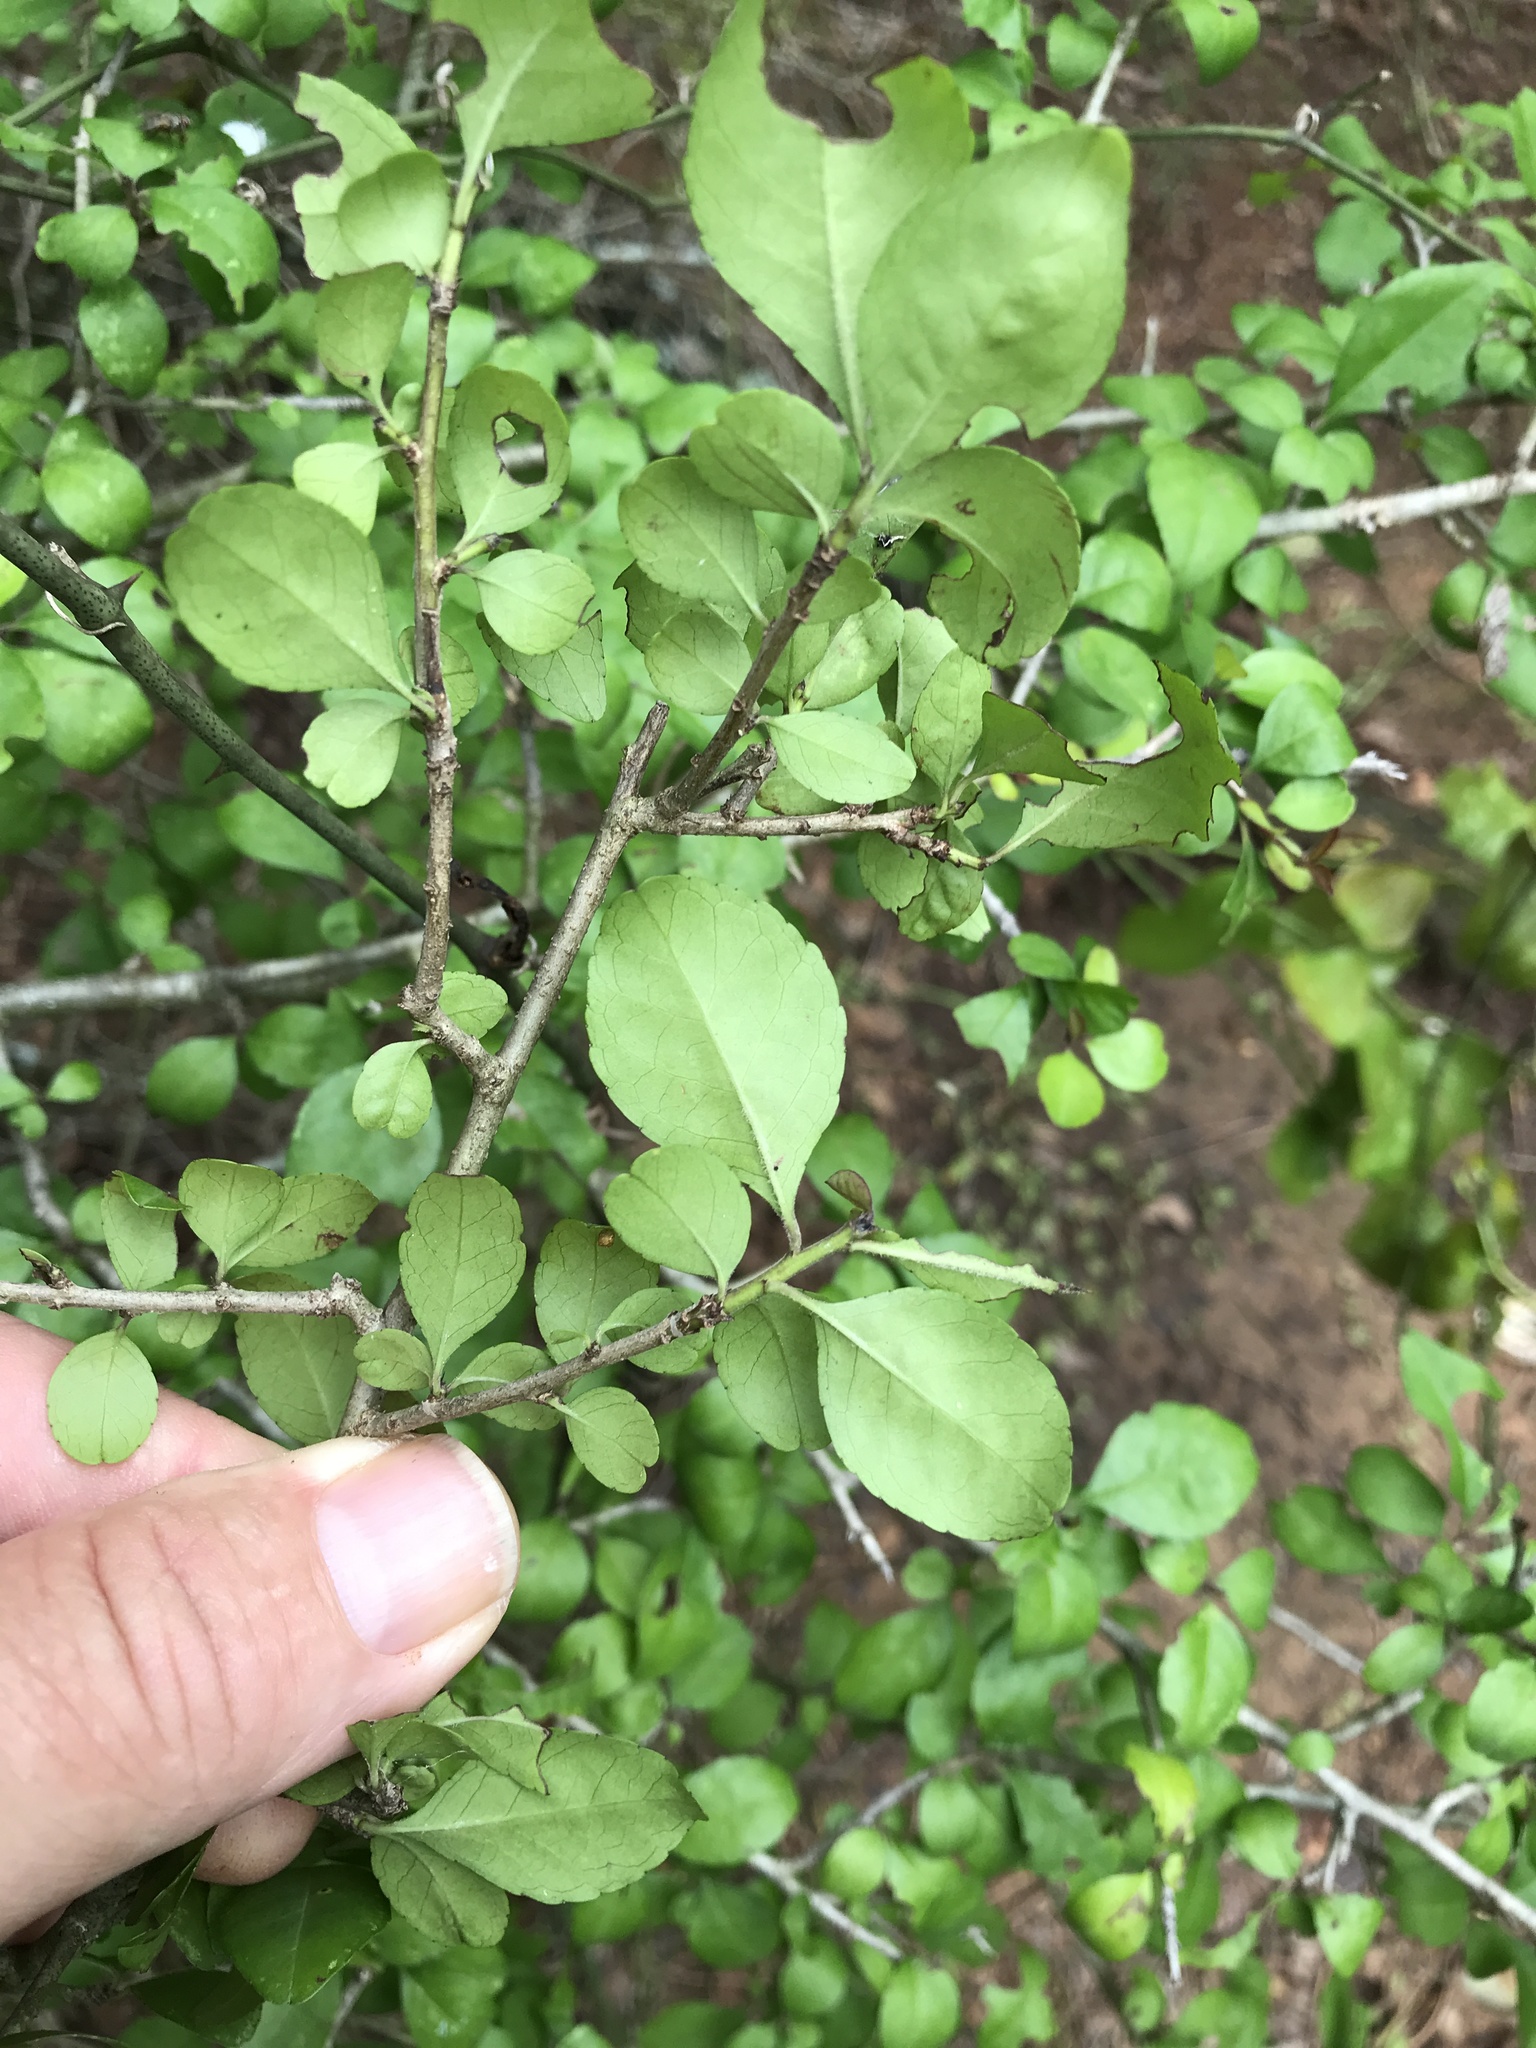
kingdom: Plantae
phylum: Tracheophyta
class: Magnoliopsida
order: Aquifoliales
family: Aquifoliaceae
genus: Ilex
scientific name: Ilex decidua
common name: Possum-haw
